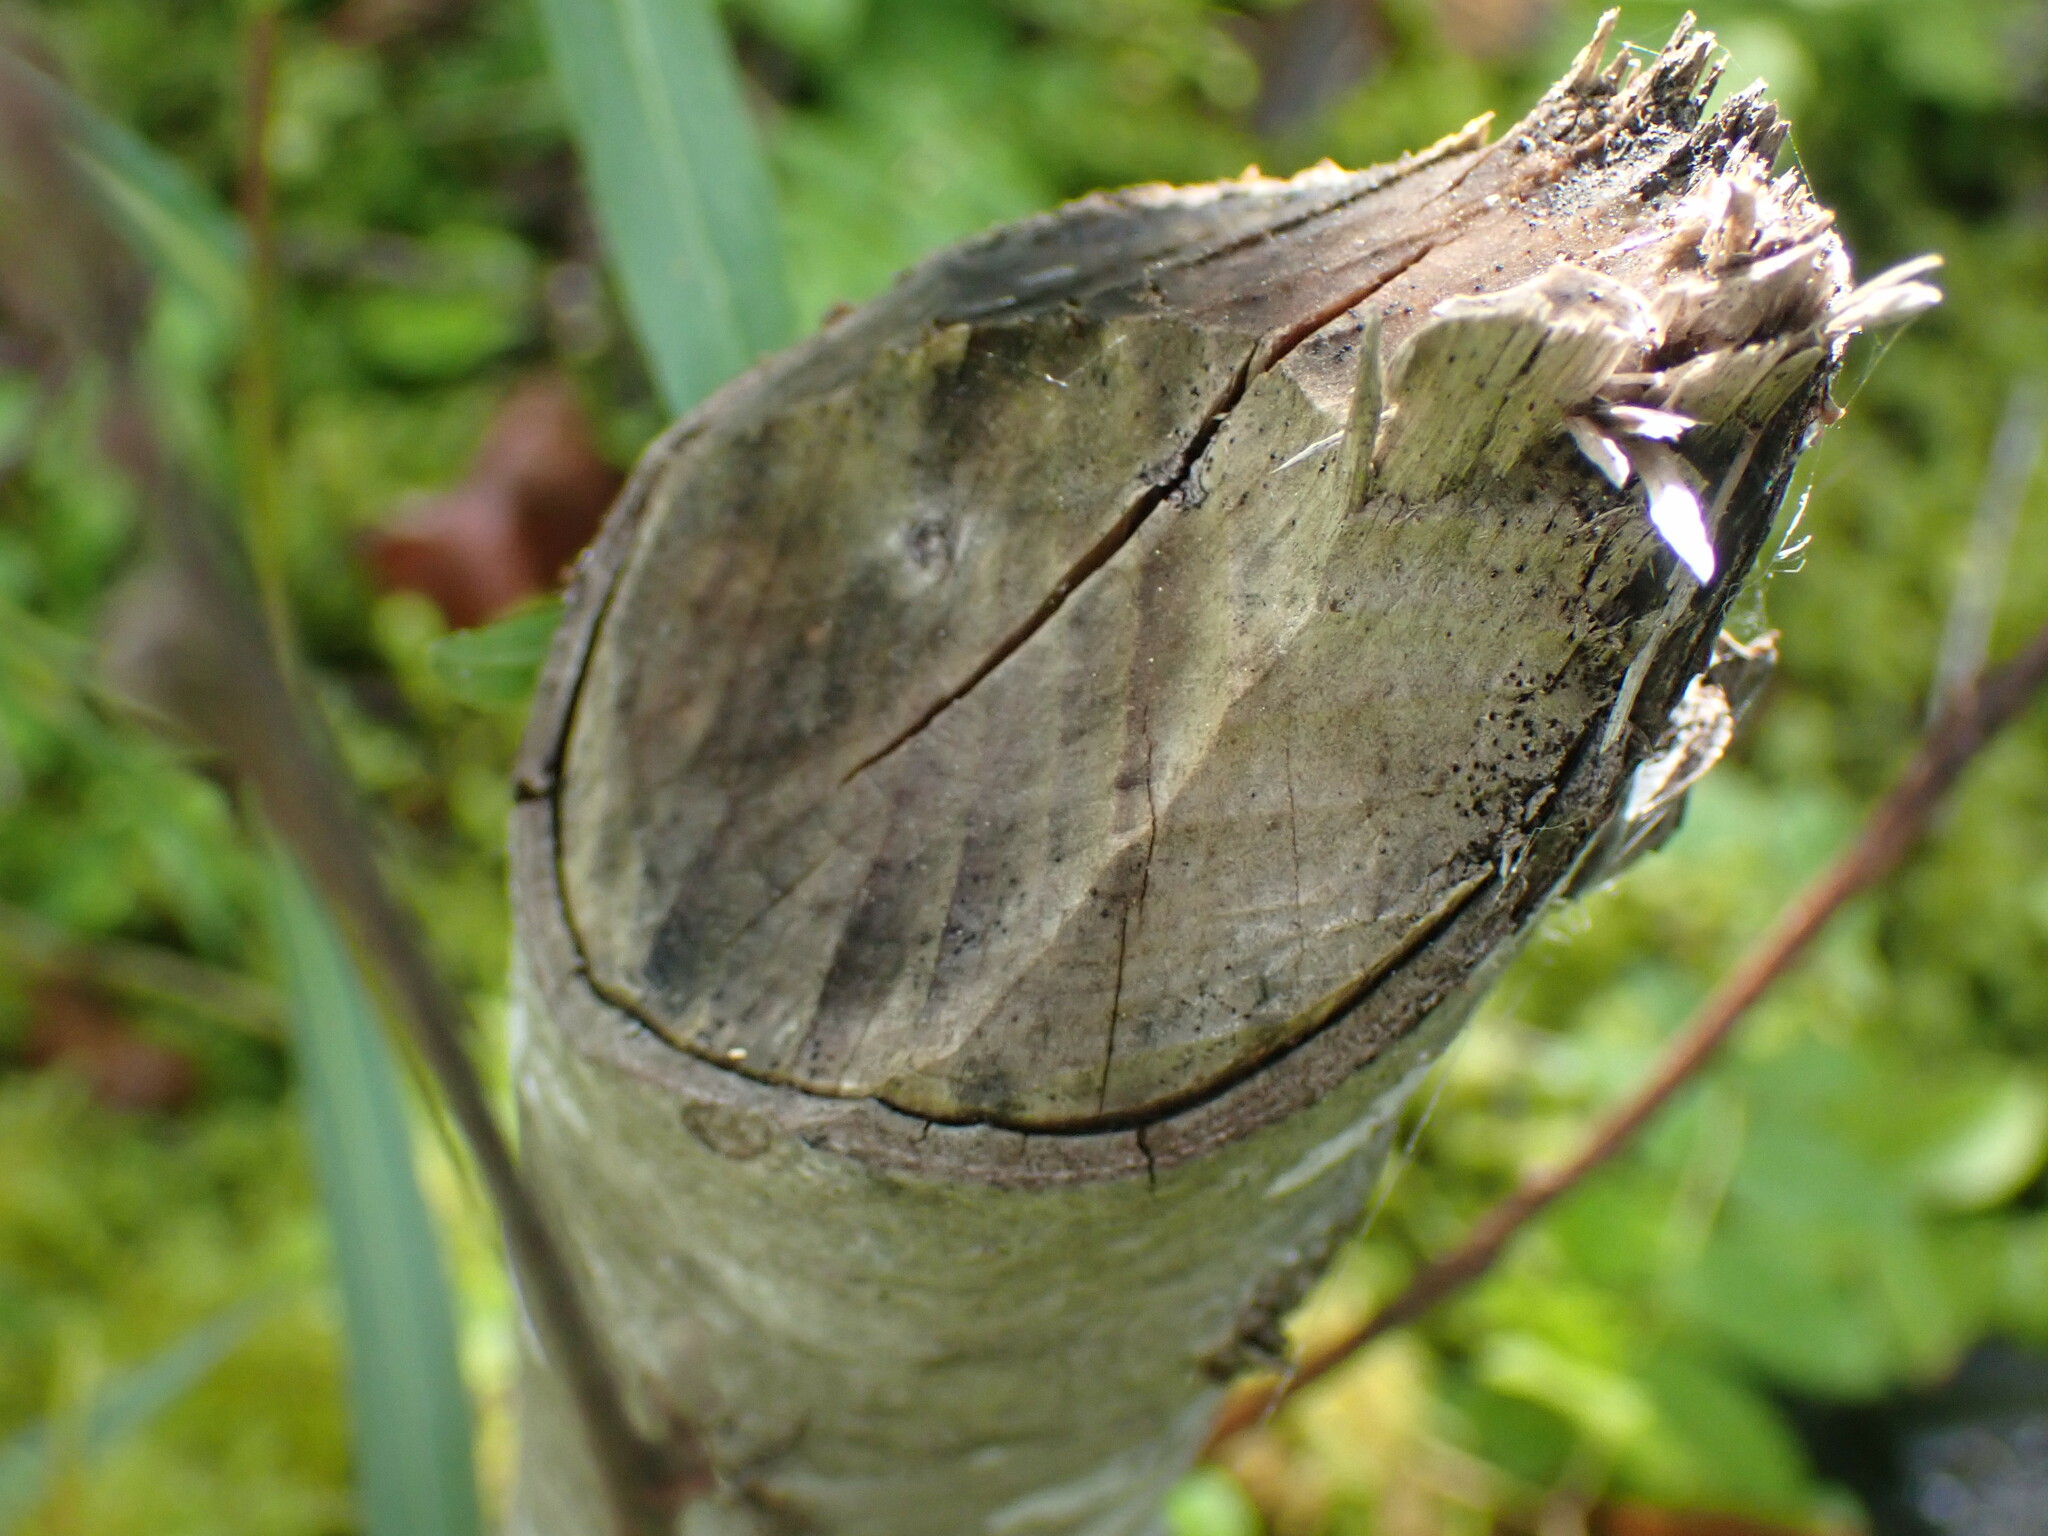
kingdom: Animalia
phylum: Chordata
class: Mammalia
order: Rodentia
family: Castoridae
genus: Castor
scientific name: Castor canadensis
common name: American beaver
